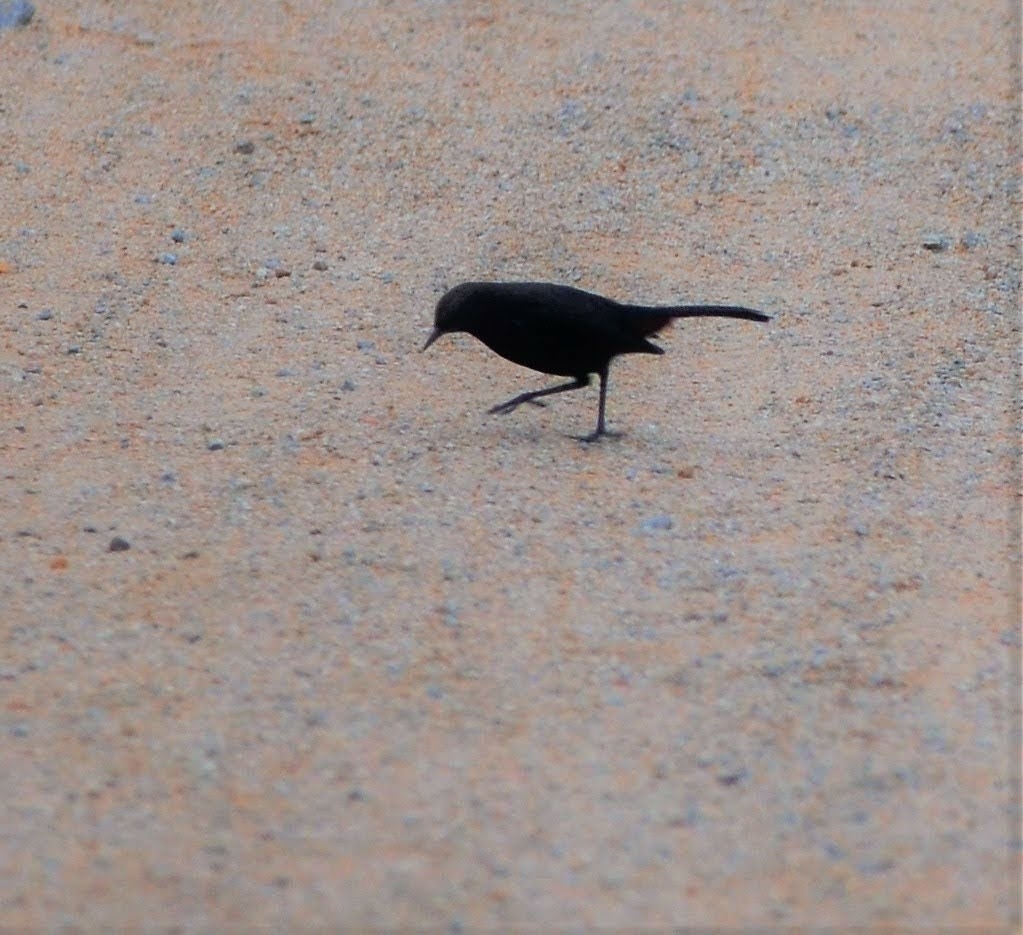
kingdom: Animalia
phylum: Chordata
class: Aves
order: Passeriformes
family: Muscicapidae
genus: Saxicoloides
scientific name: Saxicoloides fulicatus
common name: Indian robin
